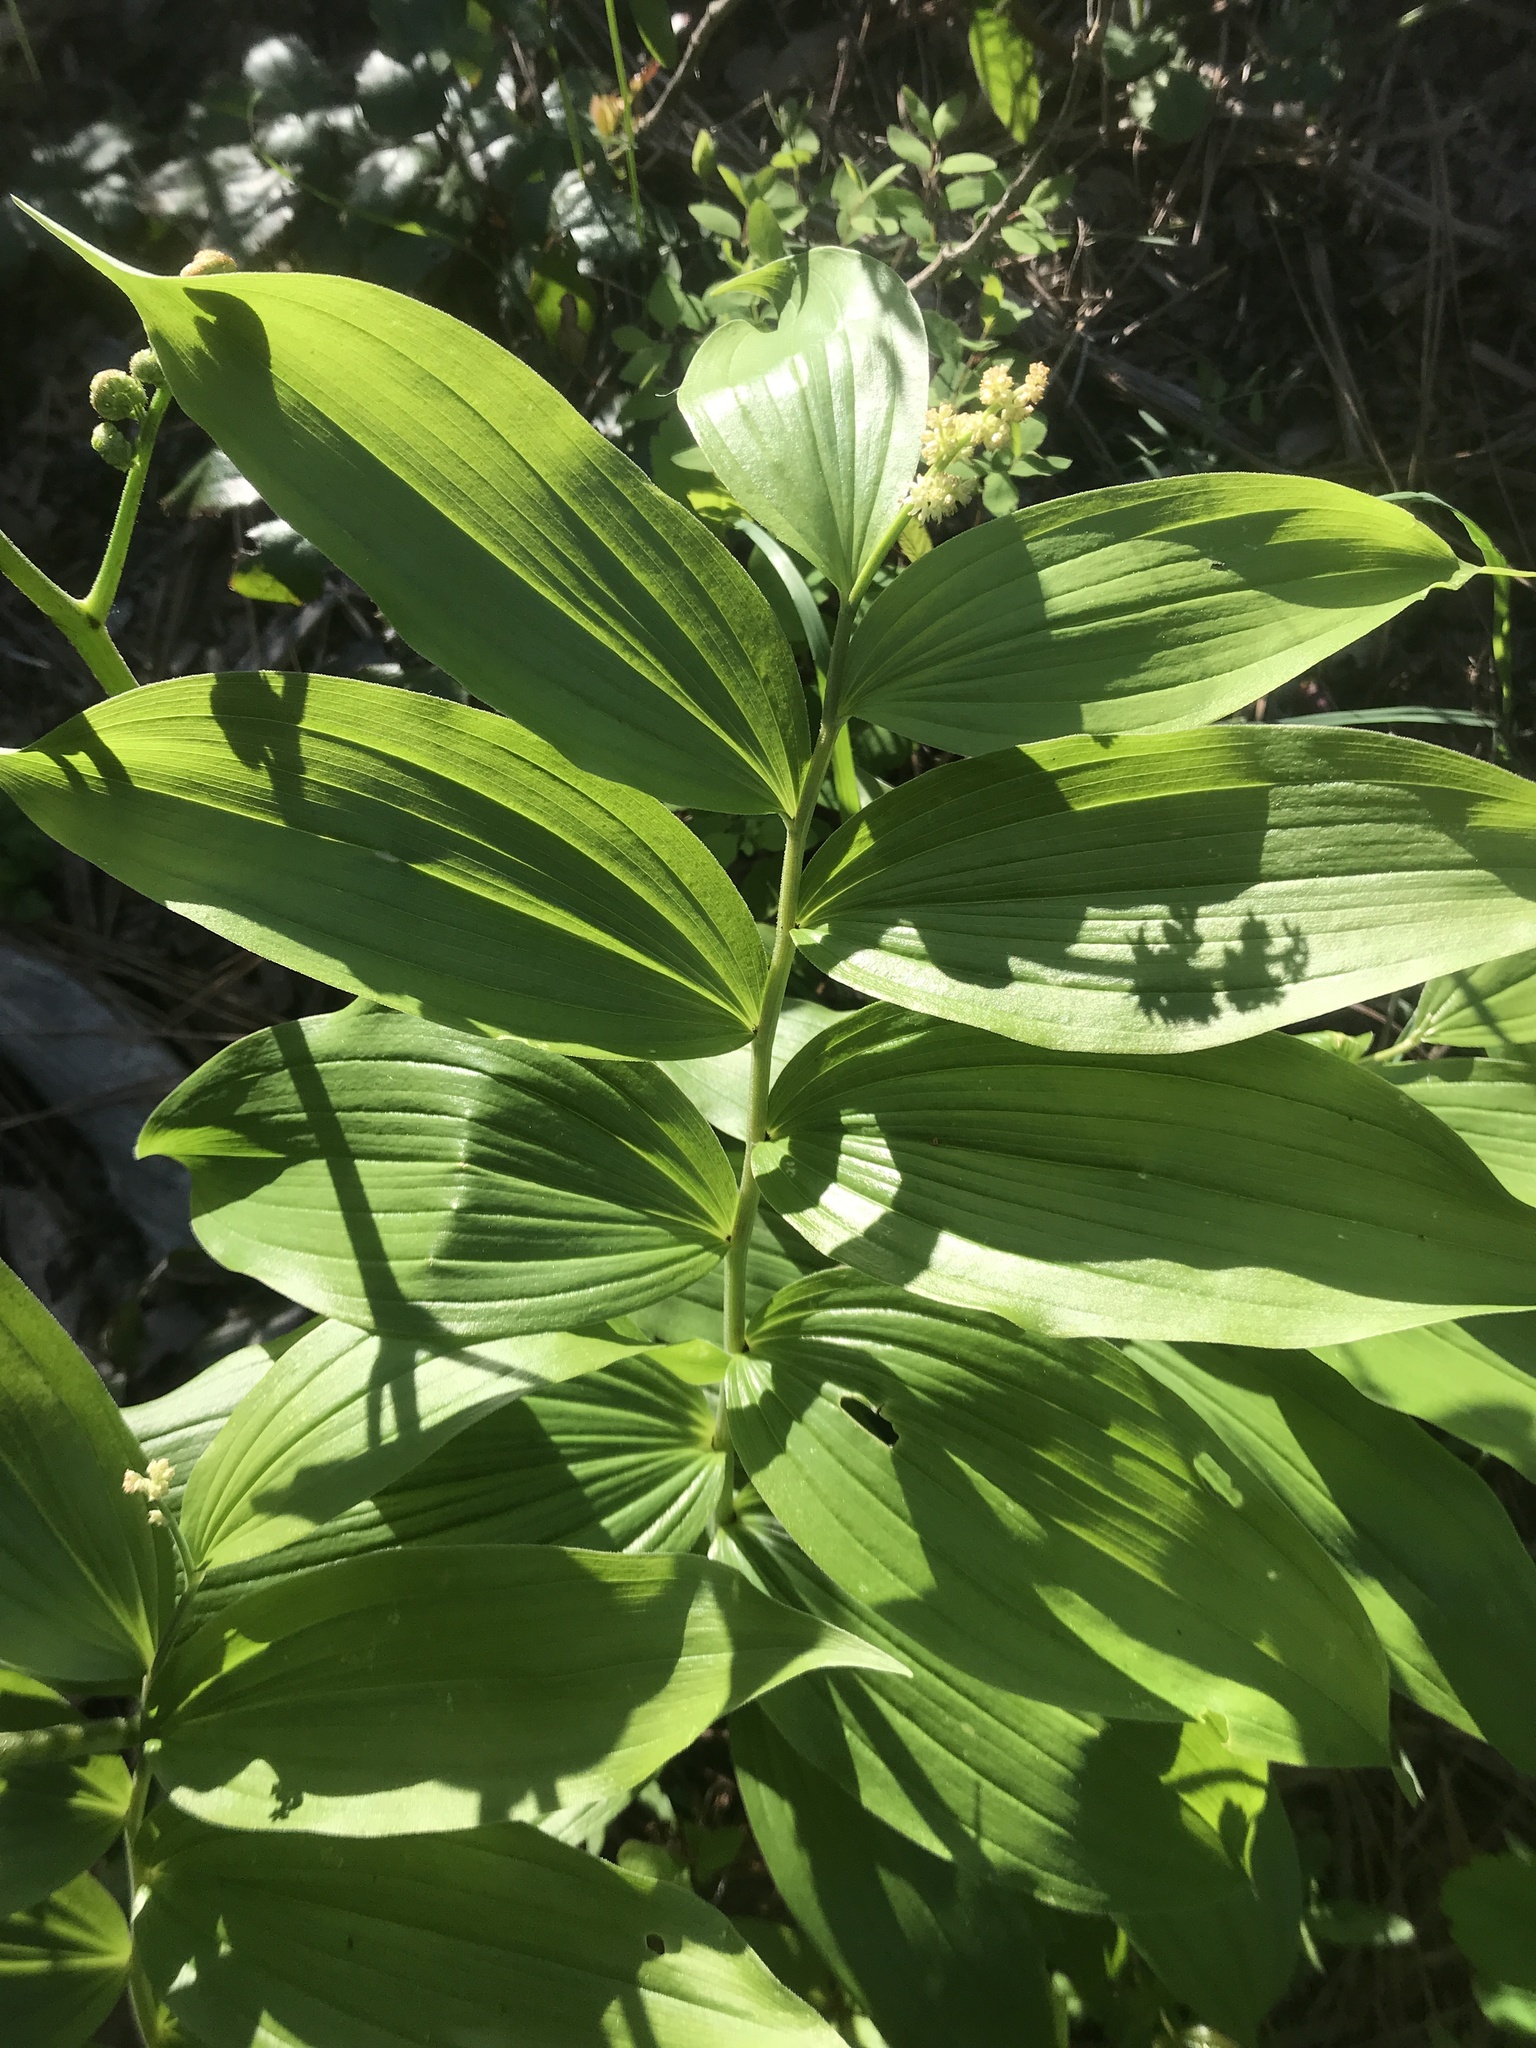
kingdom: Plantae
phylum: Tracheophyta
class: Liliopsida
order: Asparagales
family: Asparagaceae
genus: Maianthemum
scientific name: Maianthemum racemosum
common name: False spikenard
